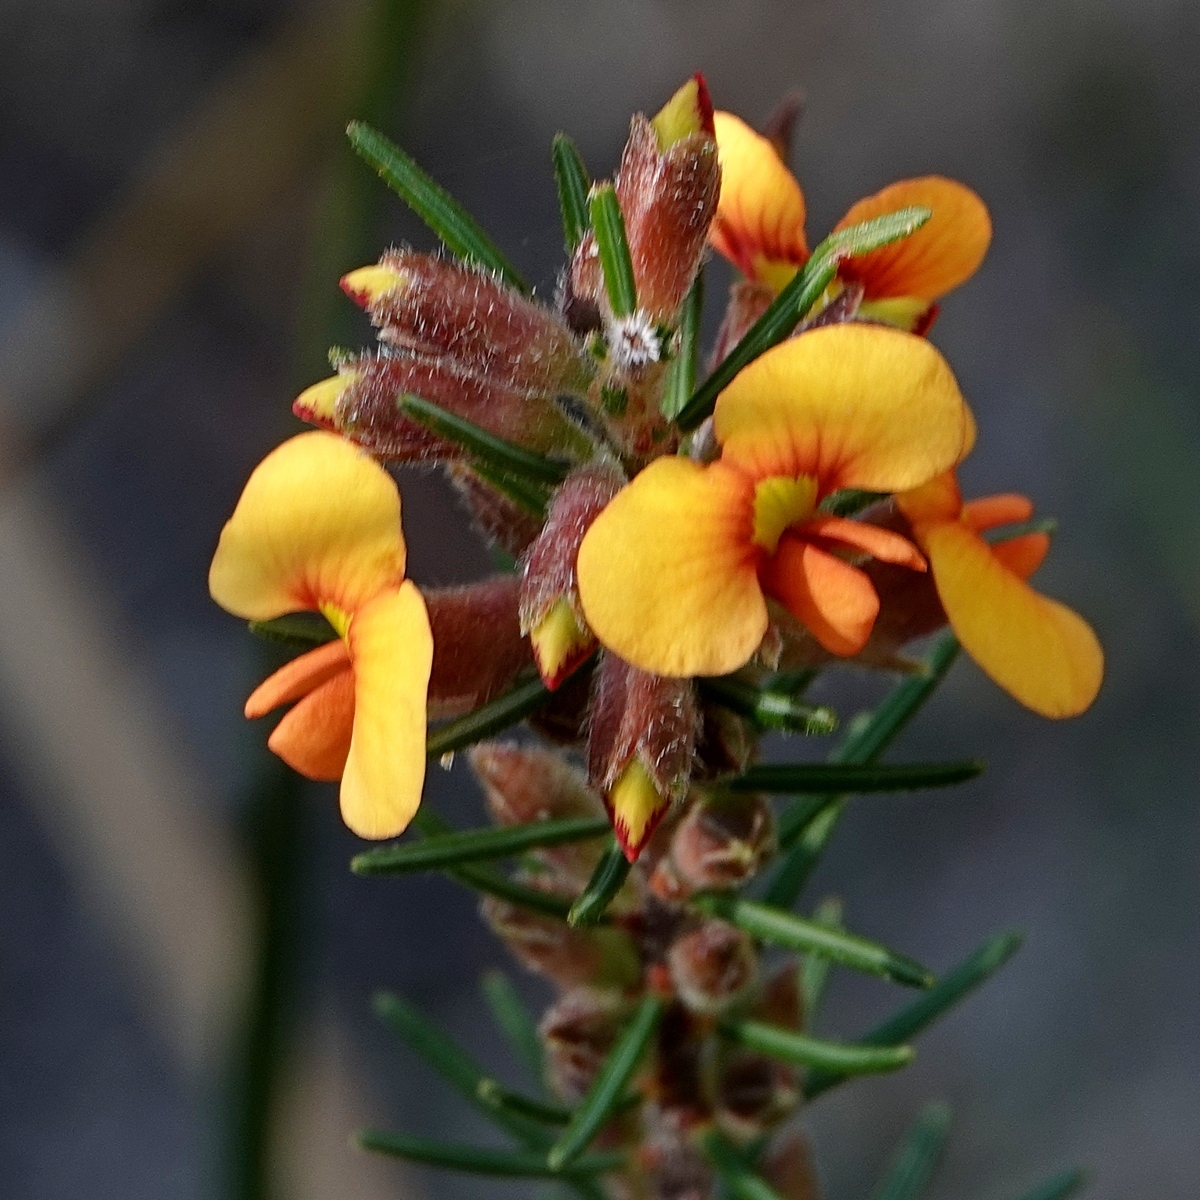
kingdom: Plantae
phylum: Tracheophyta
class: Magnoliopsida
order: Fabales
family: Fabaceae
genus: Dillwynia
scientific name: Dillwynia sericea
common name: Showy parrot-pea
